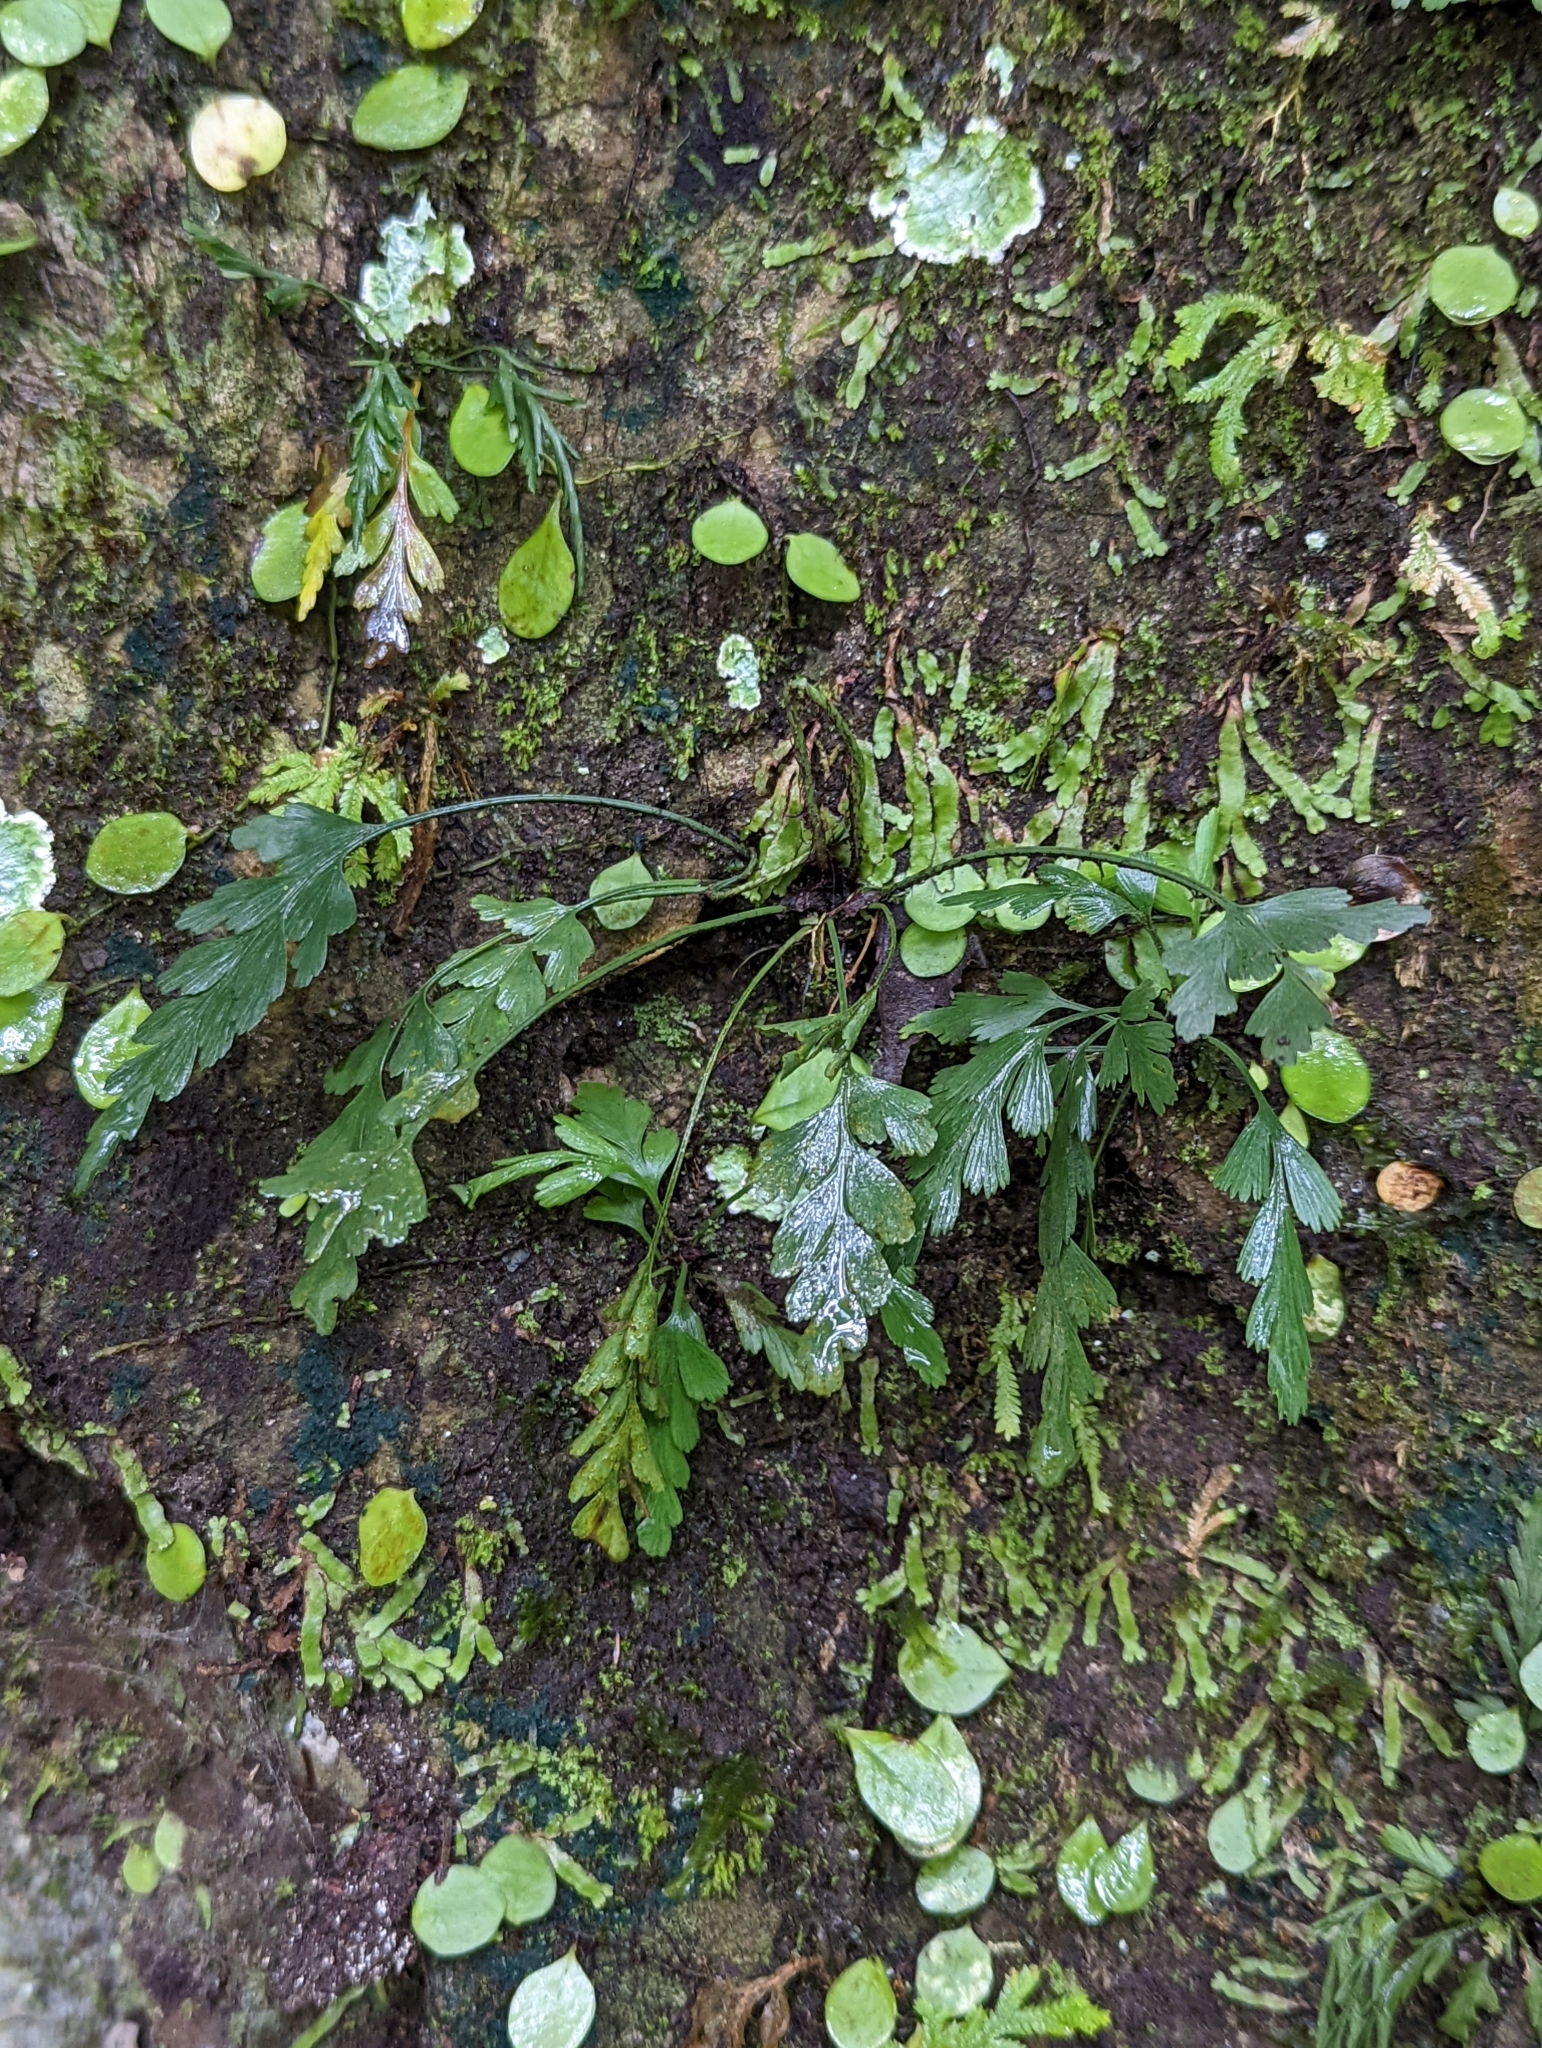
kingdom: Plantae
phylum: Tracheophyta
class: Polypodiopsida
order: Polypodiales
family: Aspleniaceae
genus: Asplenium
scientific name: Asplenium oldhamii
